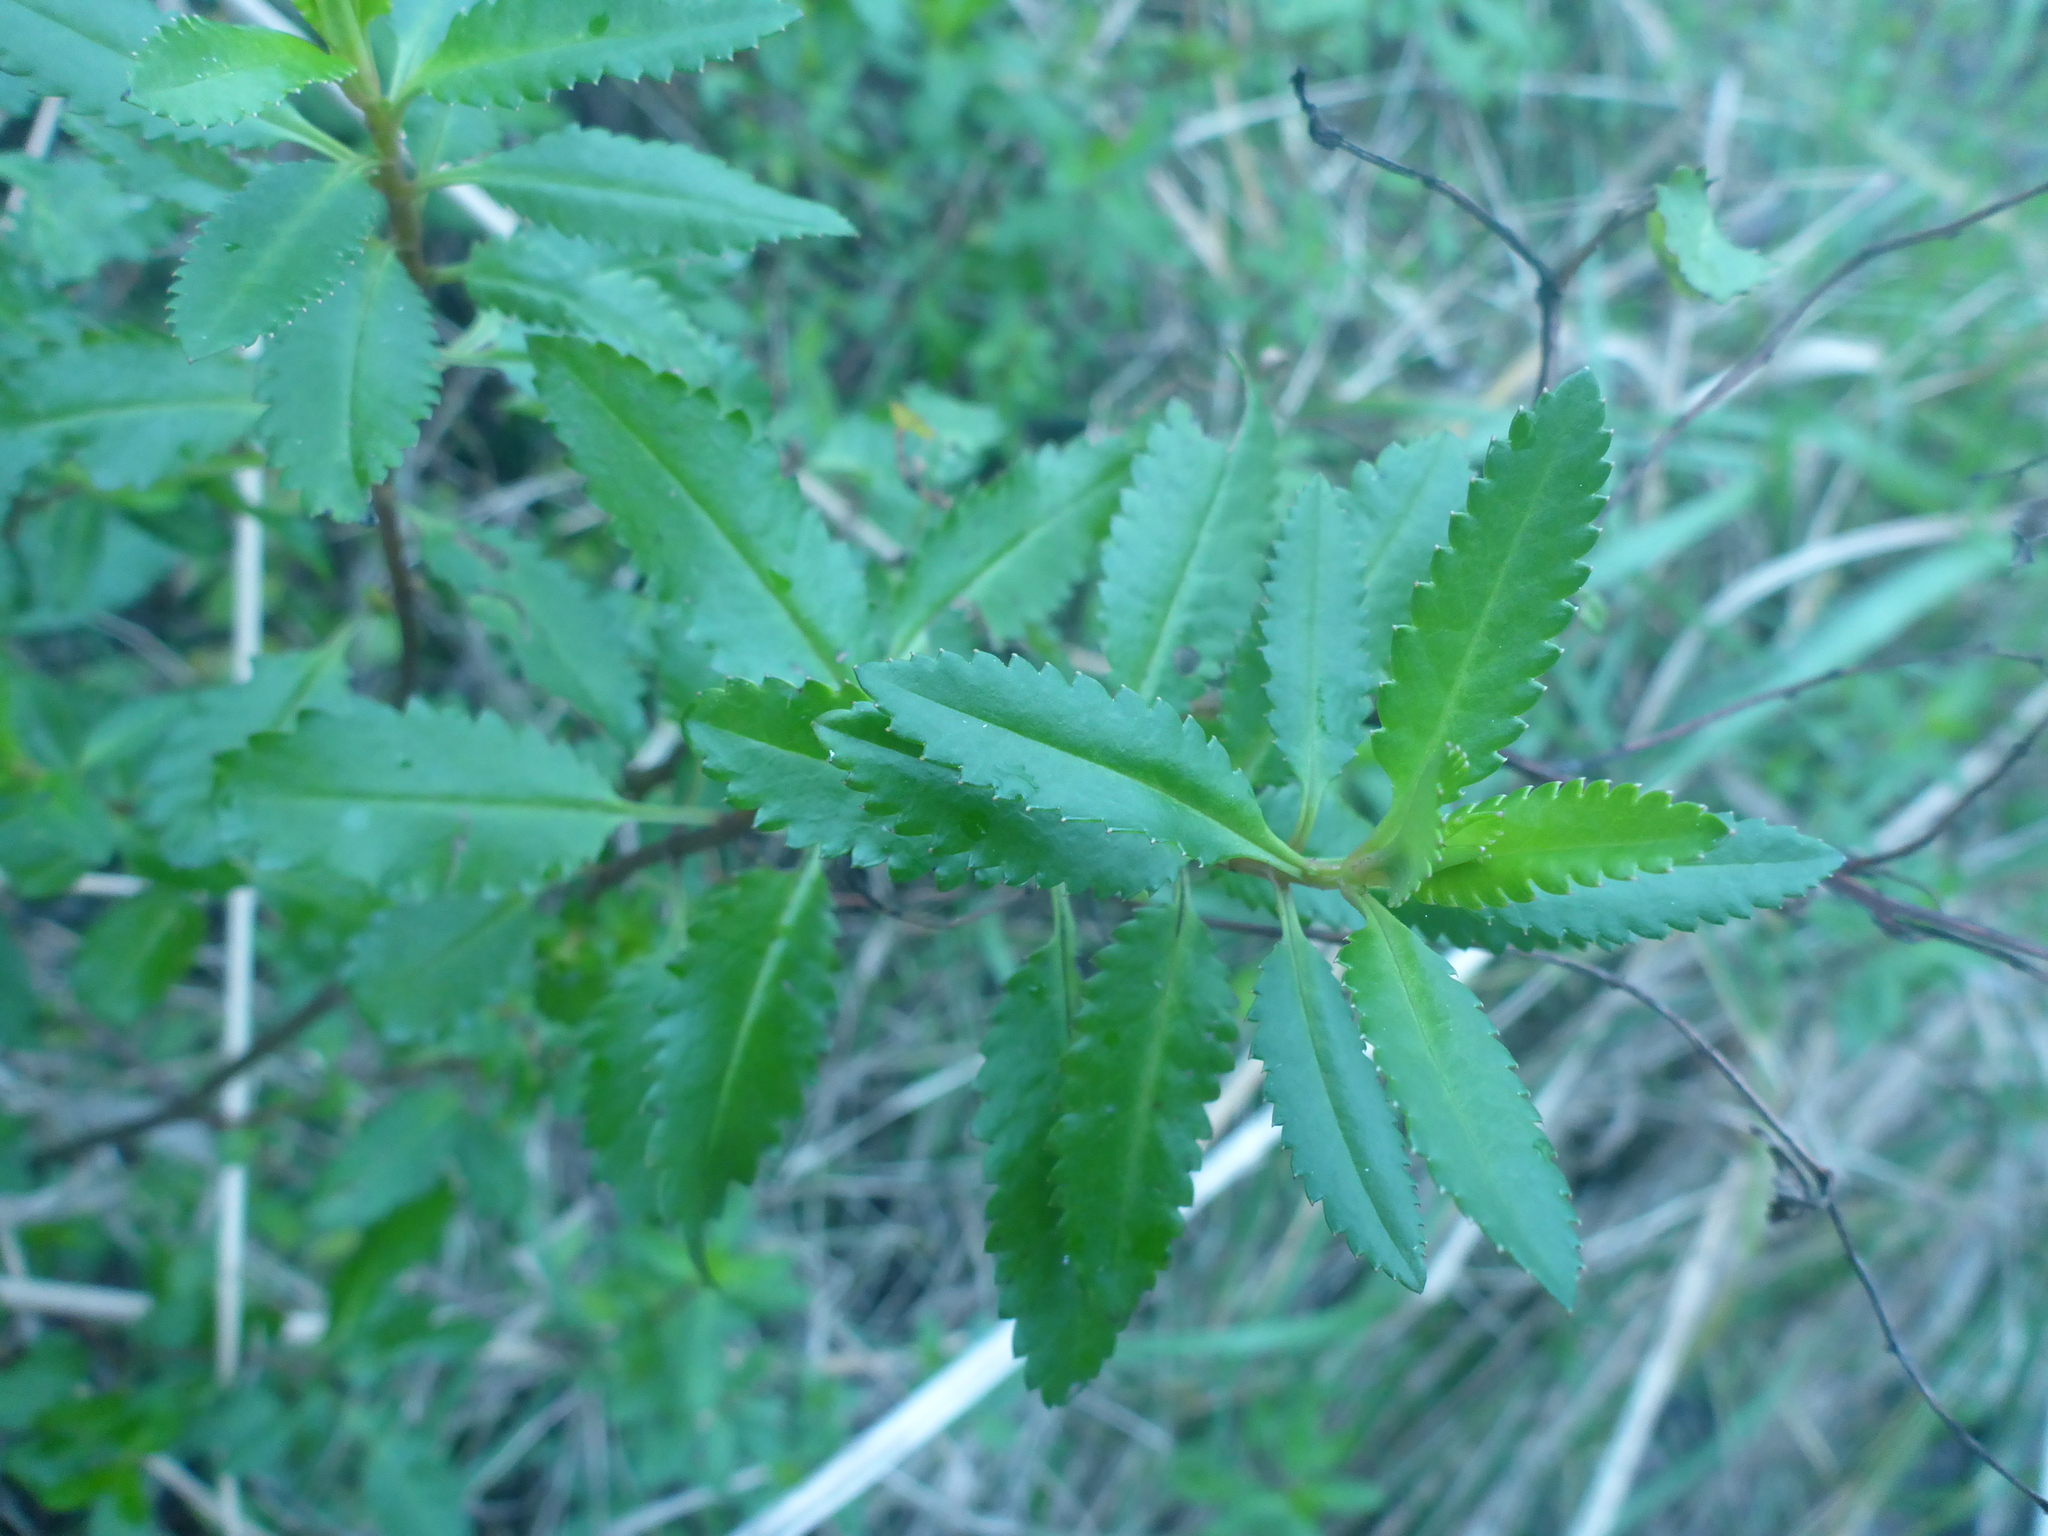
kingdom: Plantae
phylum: Tracheophyta
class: Magnoliopsida
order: Saxifragales
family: Haloragaceae
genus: Haloragis
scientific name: Haloragis erecta
